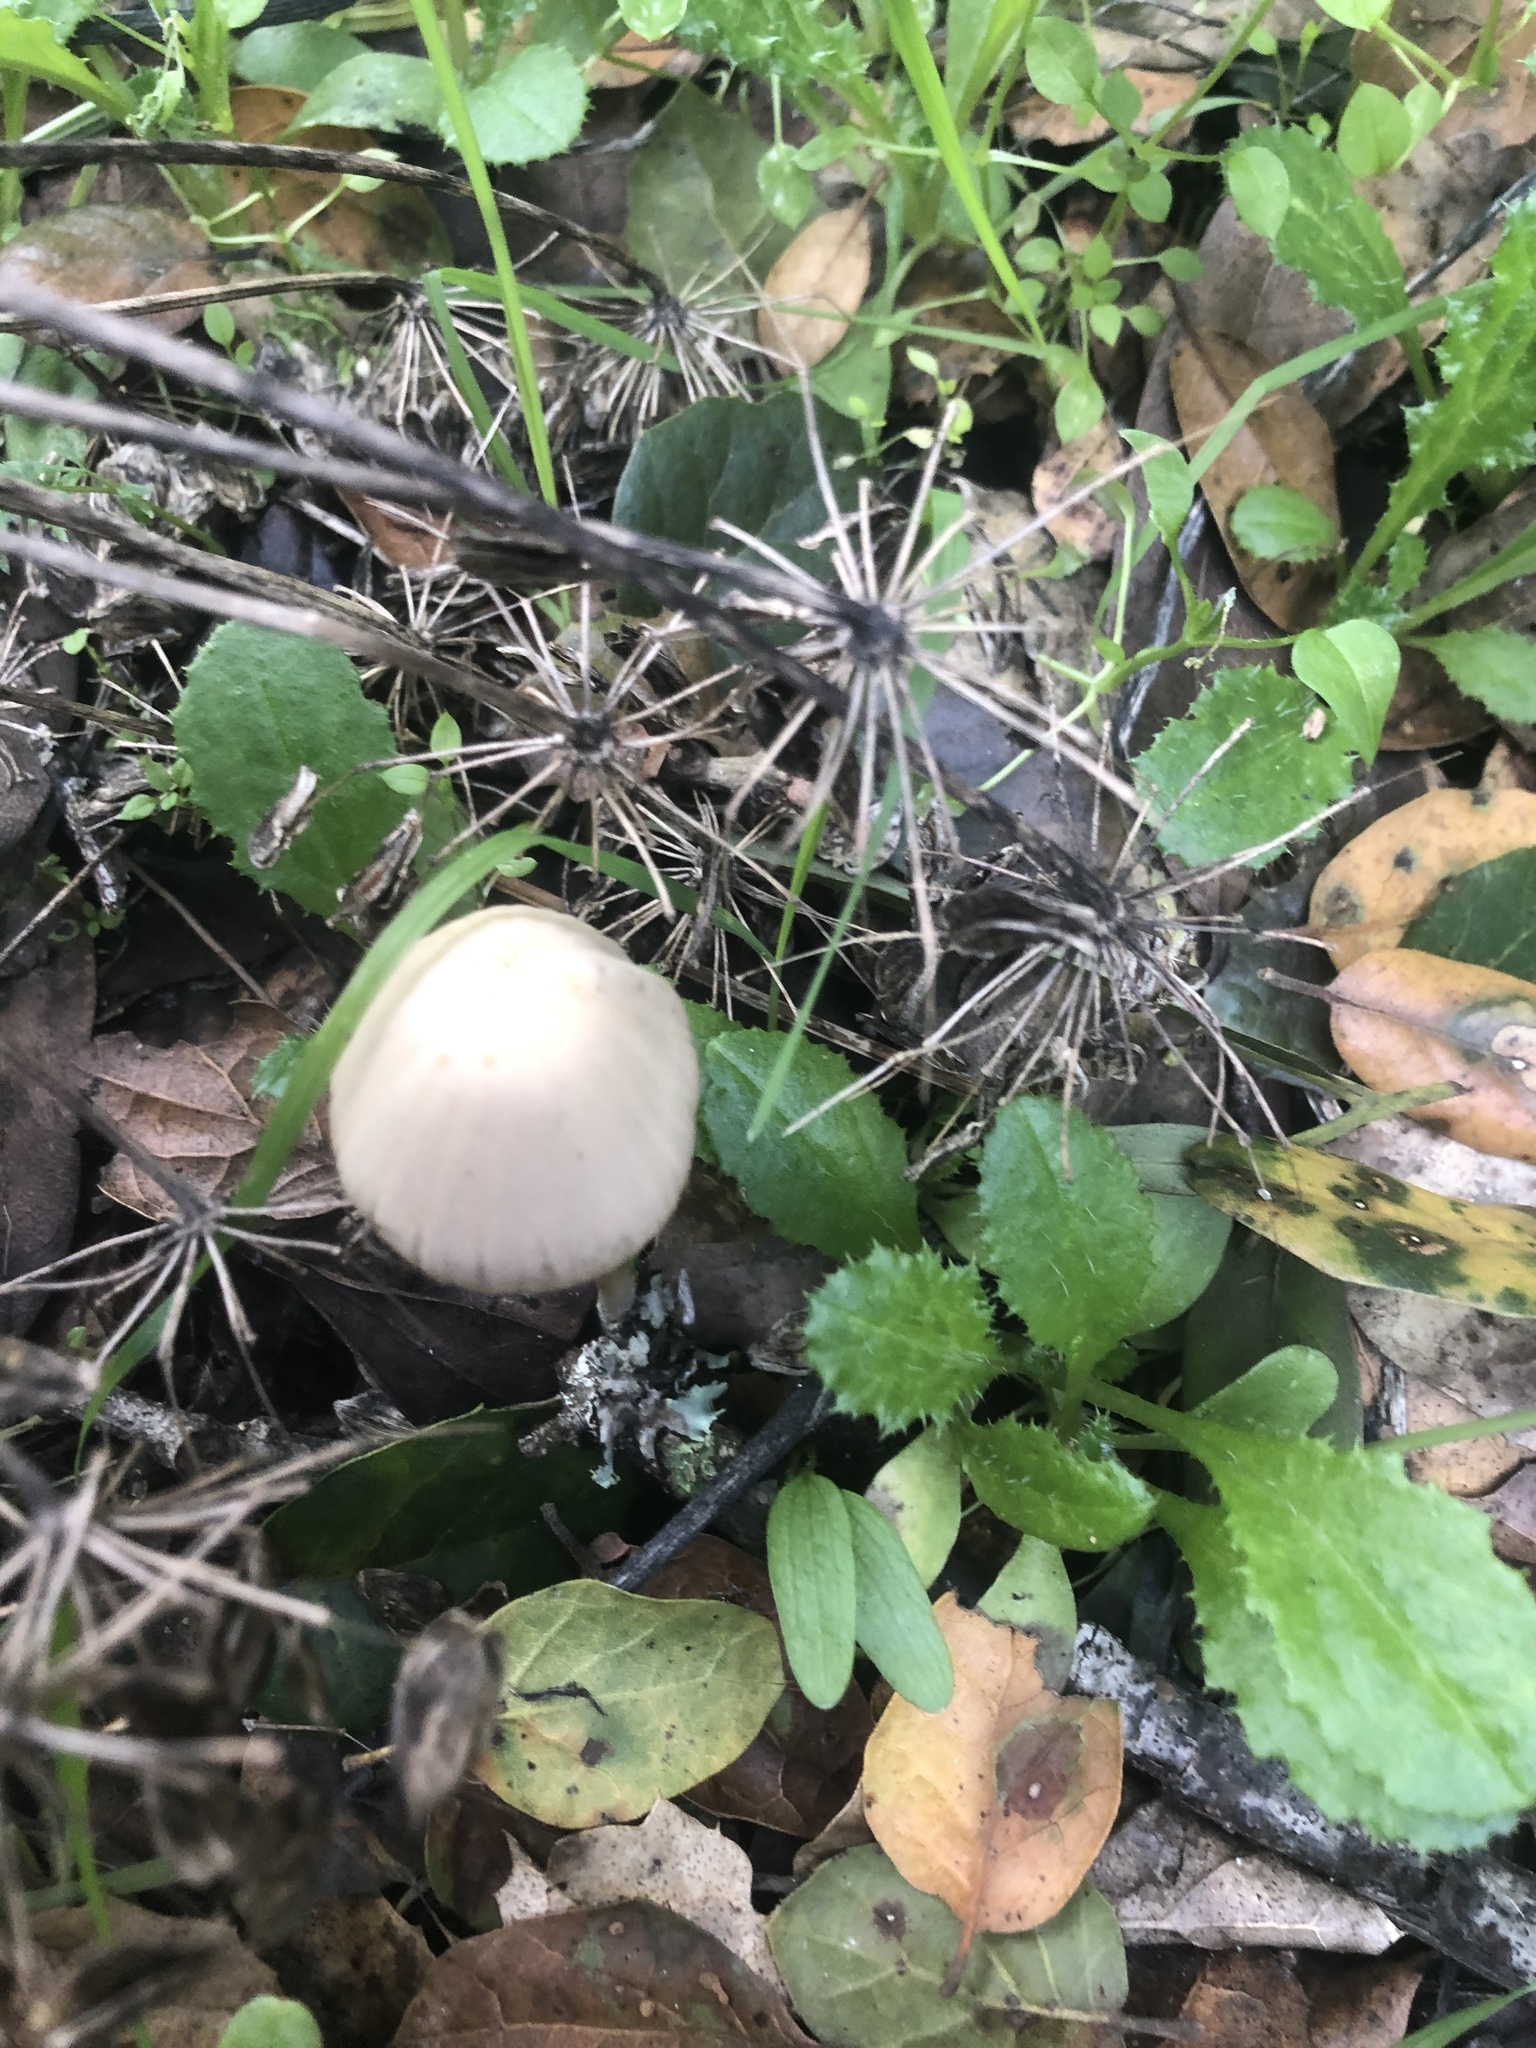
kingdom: Fungi
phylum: Basidiomycota
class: Agaricomycetes
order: Agaricales
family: Psathyrellaceae
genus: Psathyrella
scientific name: Psathyrella longipes
